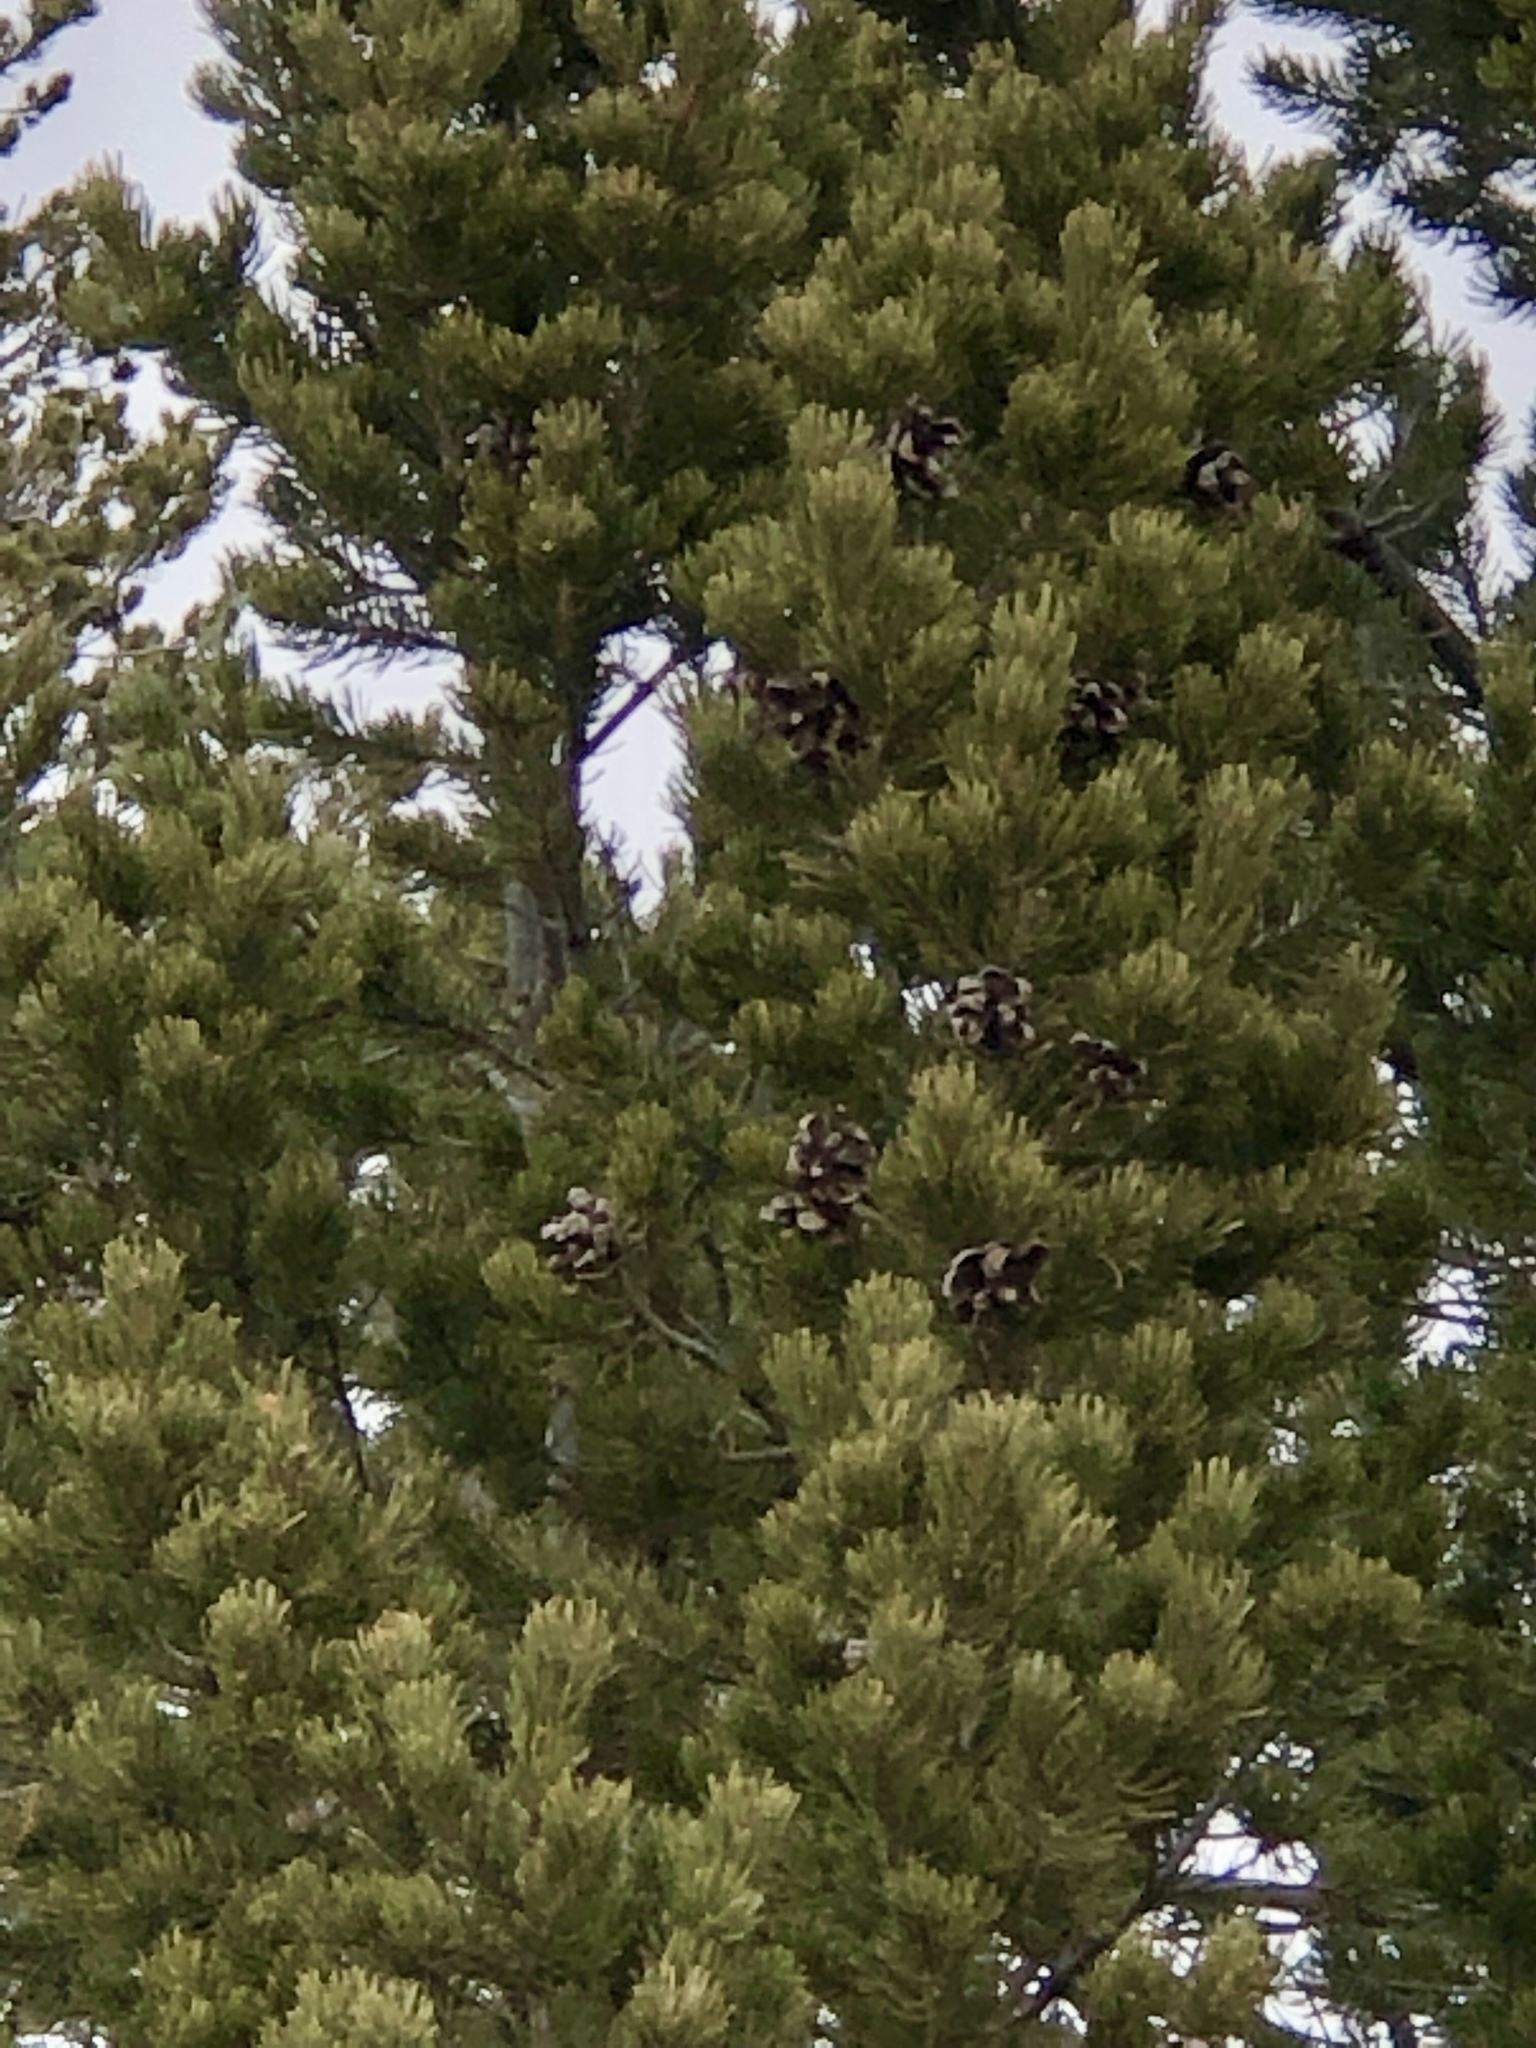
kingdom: Plantae
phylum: Tracheophyta
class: Pinopsida
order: Pinales
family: Pinaceae
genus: Pinus
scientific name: Pinus edulis
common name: Colorado pinyon
